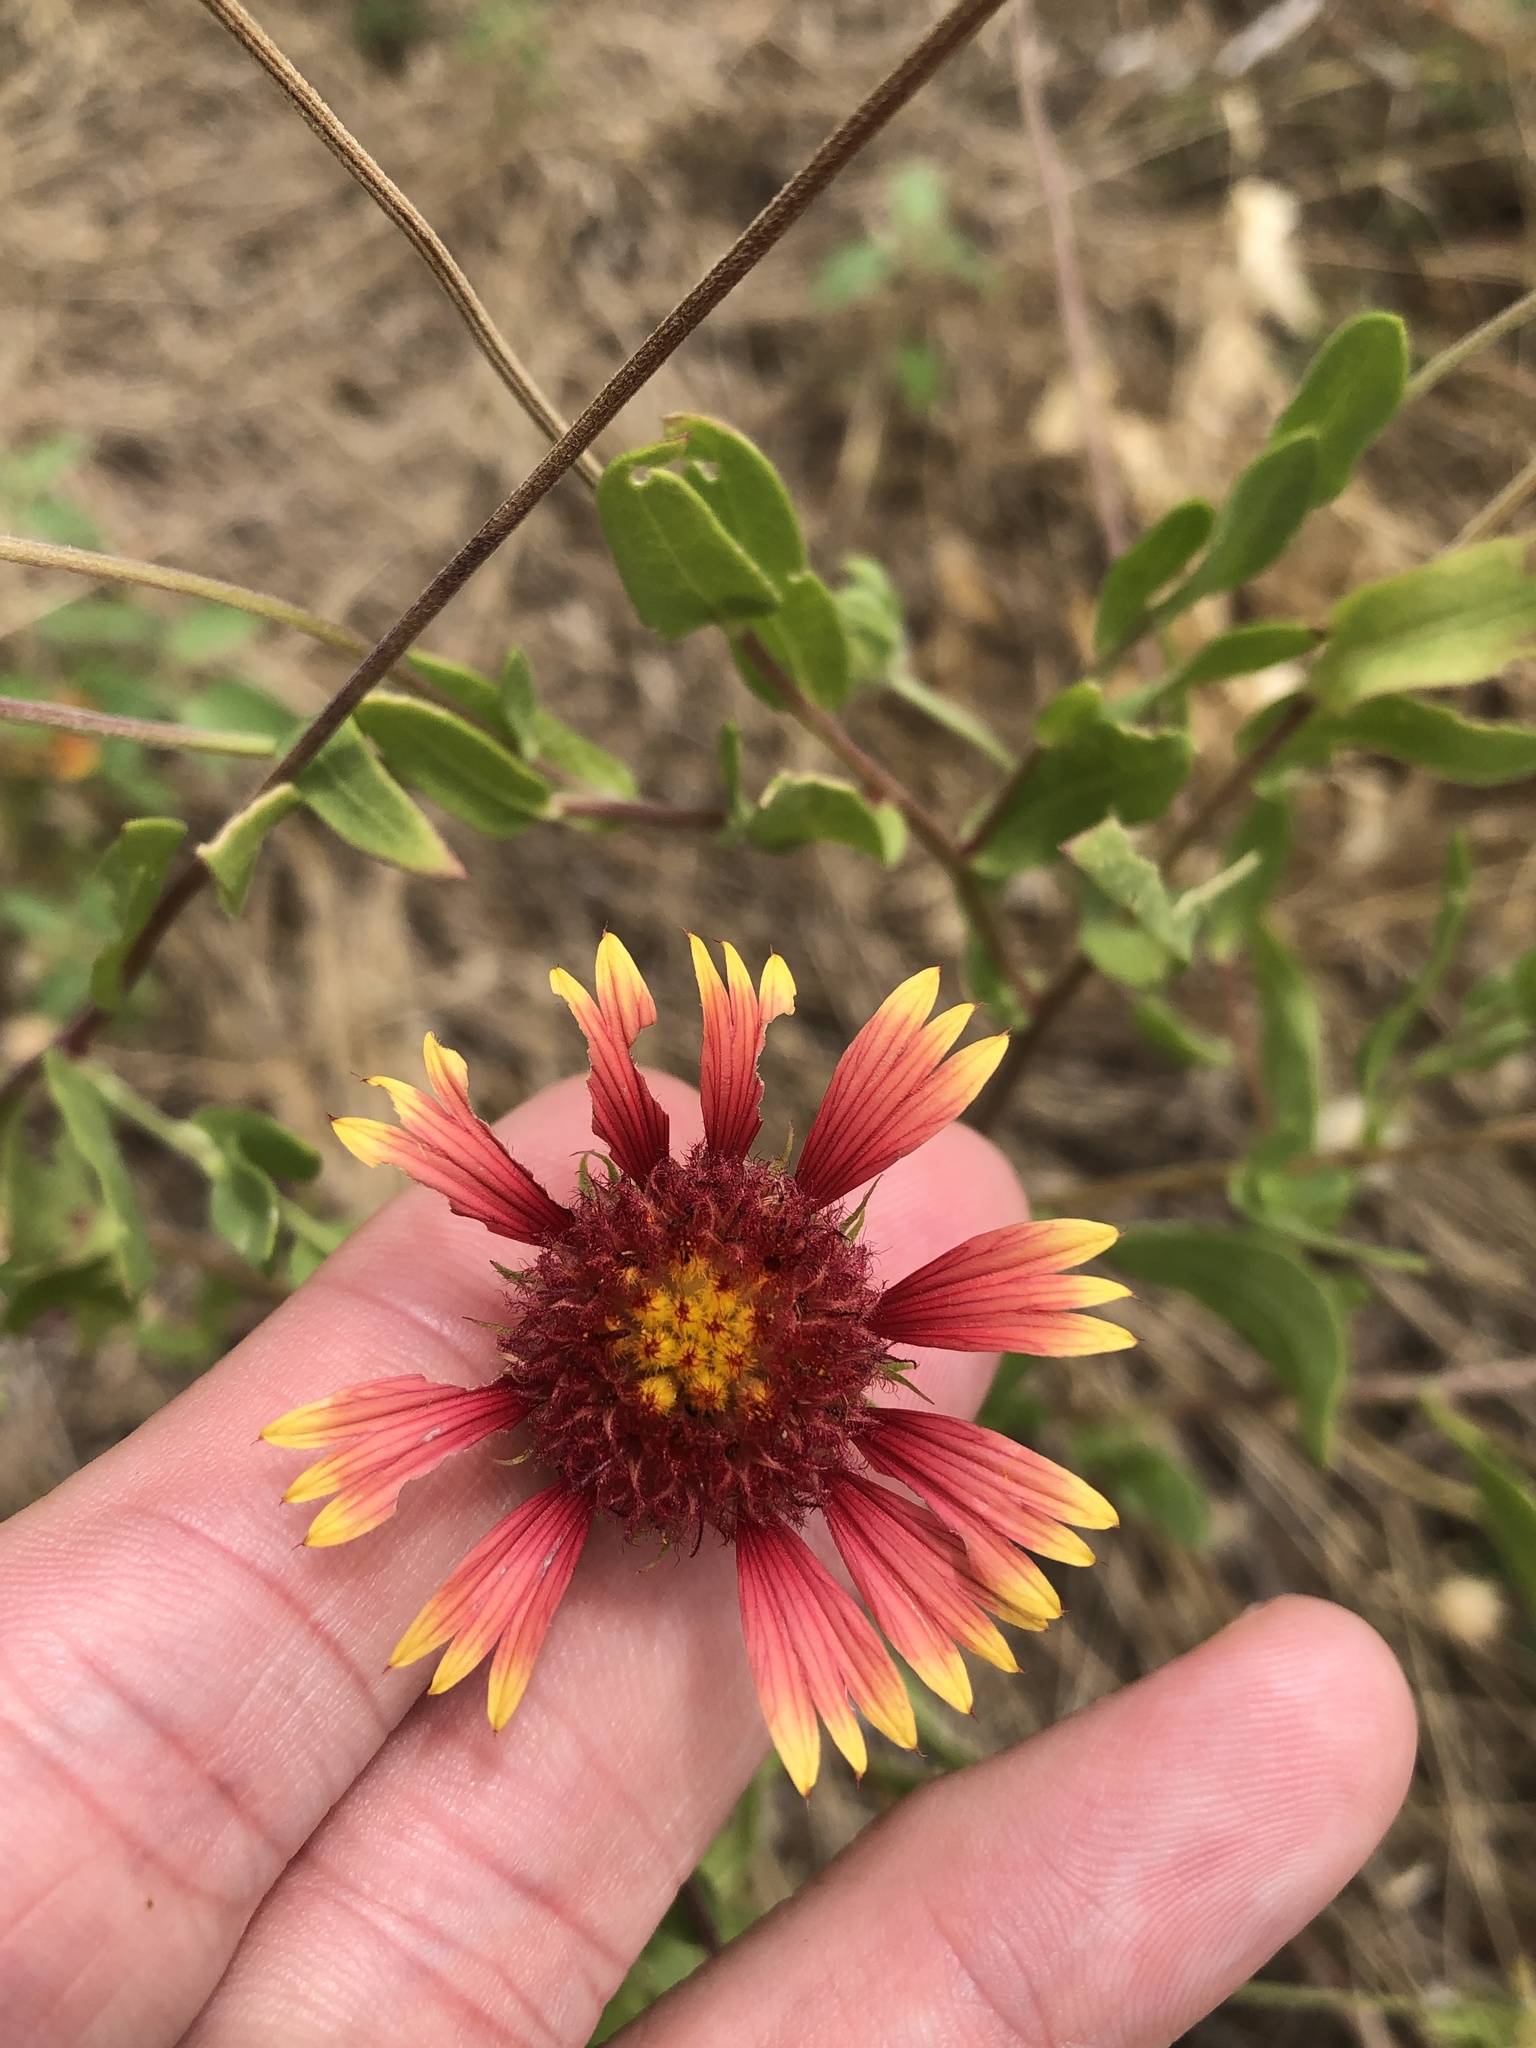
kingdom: Plantae
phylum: Tracheophyta
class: Magnoliopsida
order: Asterales
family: Asteraceae
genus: Gaillardia
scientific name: Gaillardia pulchella
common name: Firewheel
